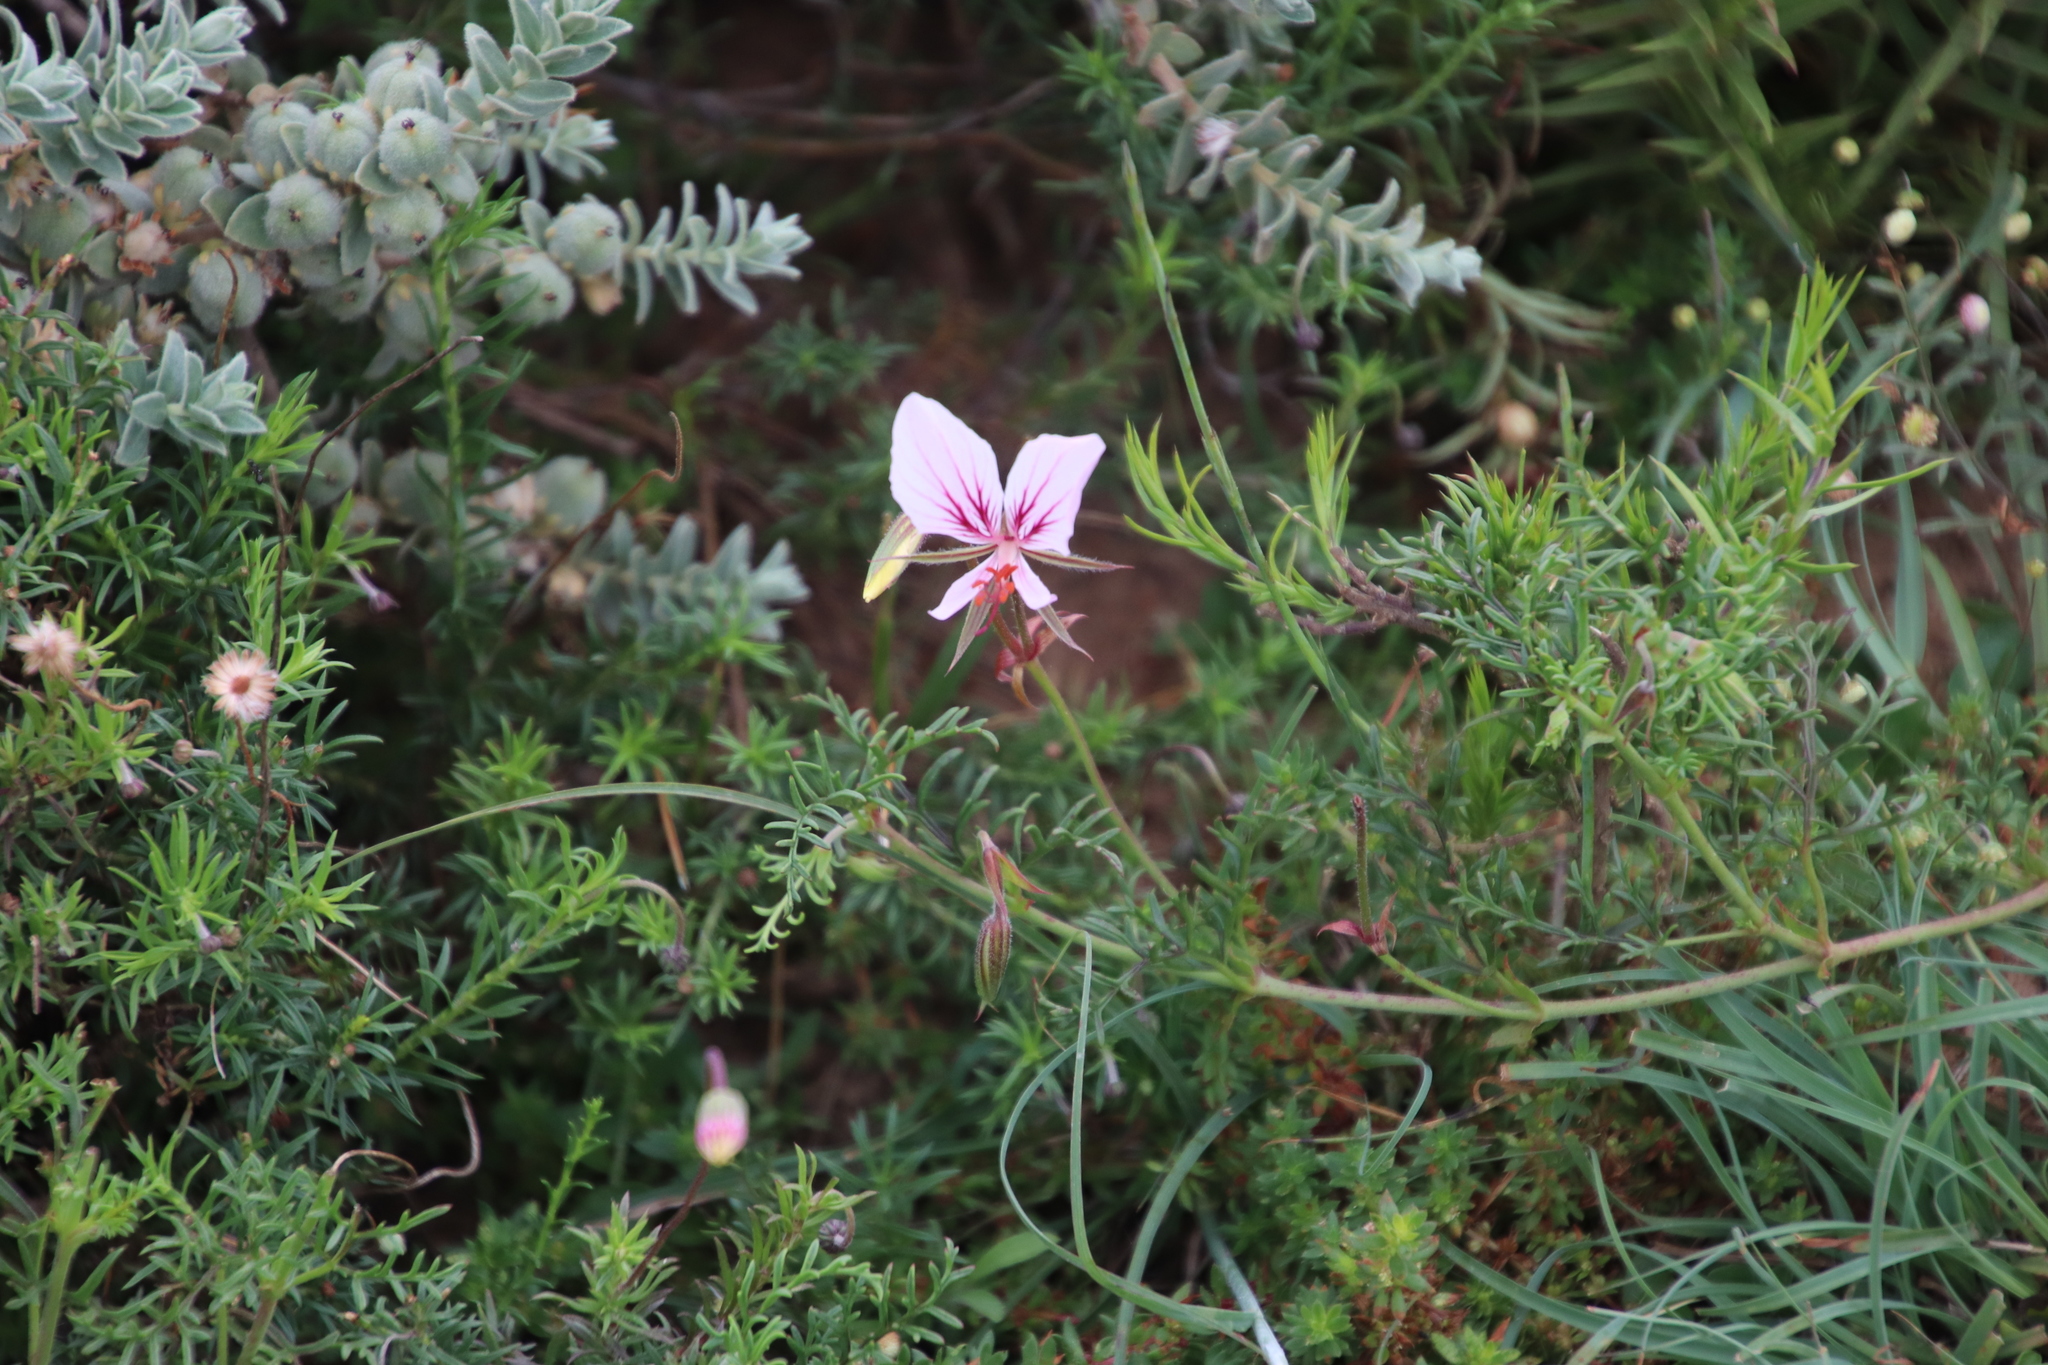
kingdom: Plantae
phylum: Tracheophyta
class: Magnoliopsida
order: Geraniales
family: Geraniaceae
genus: Pelargonium
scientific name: Pelargonium longicaule
